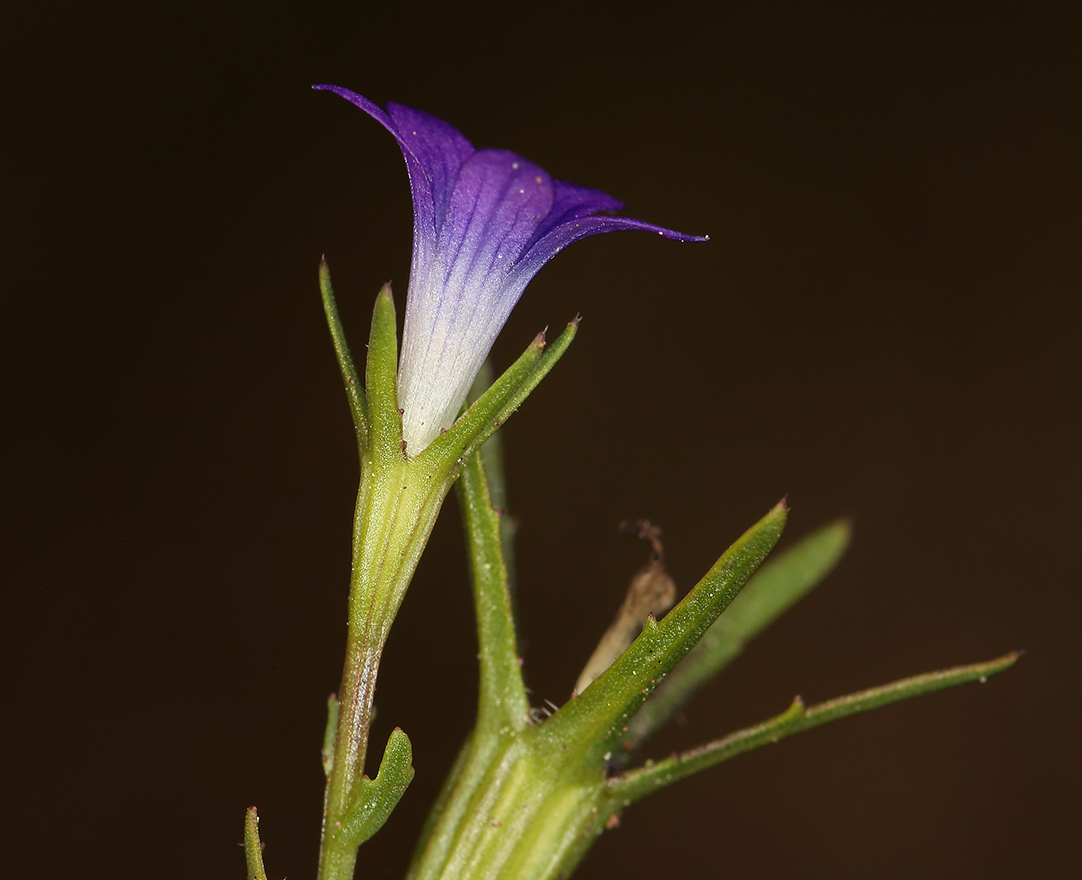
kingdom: Plantae
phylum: Tracheophyta
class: Magnoliopsida
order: Asterales
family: Campanulaceae
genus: Githopsis
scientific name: Githopsis specularioides
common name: Common bluecup
